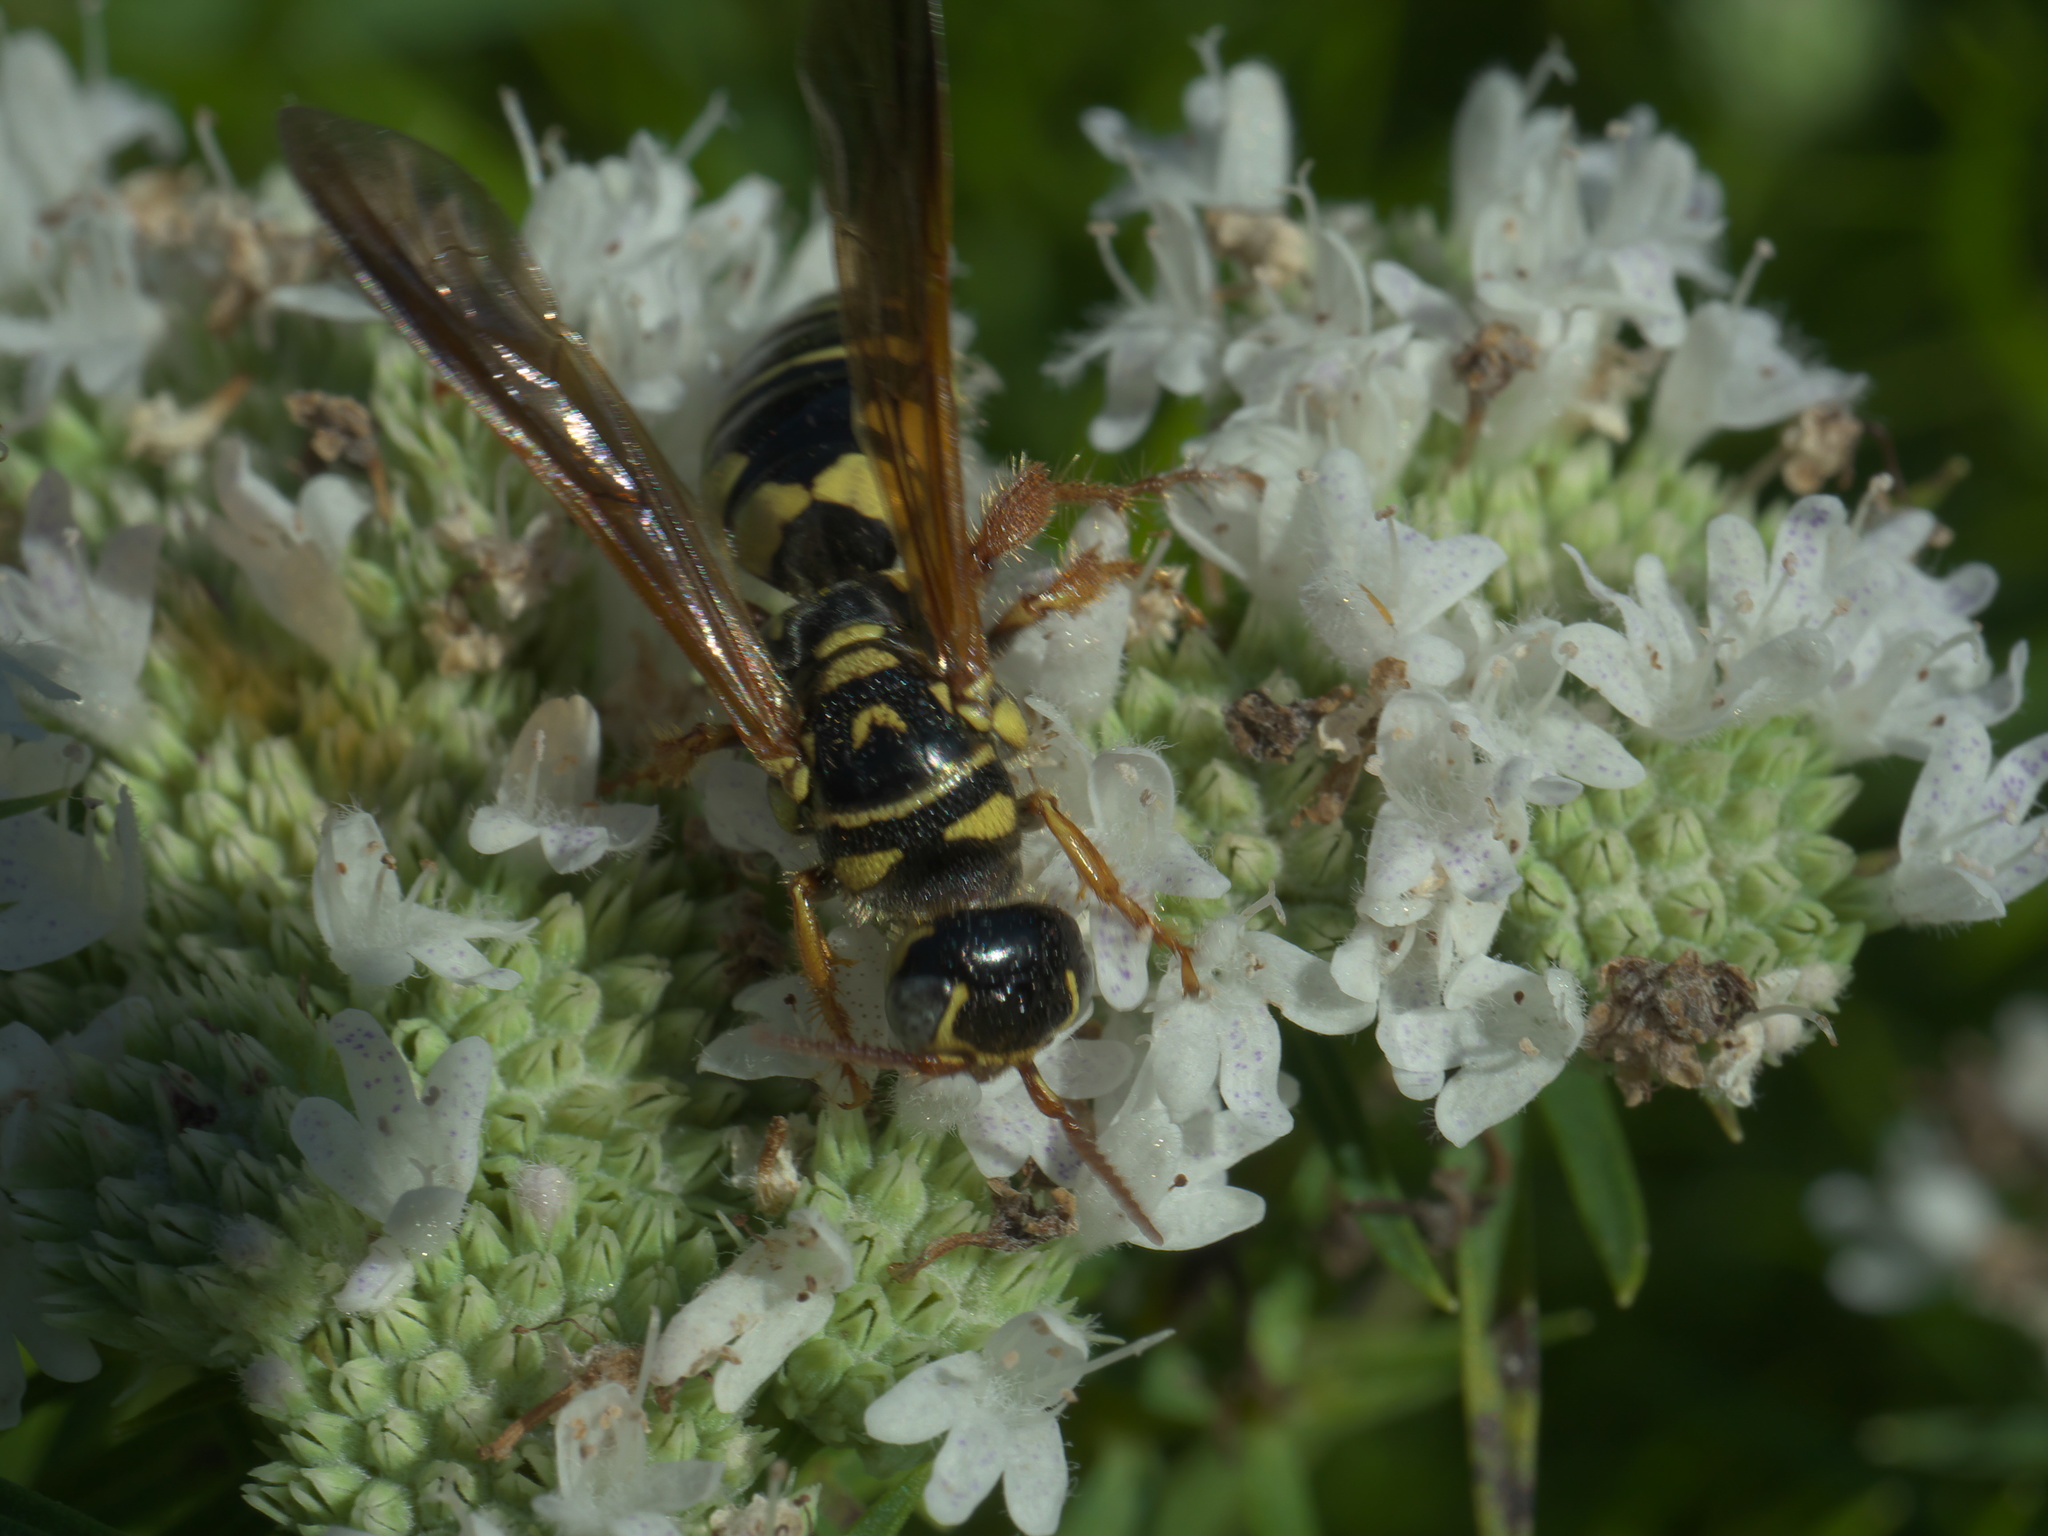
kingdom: Animalia
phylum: Arthropoda
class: Insecta
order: Hymenoptera
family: Tiphiidae
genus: Myzinum
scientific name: Myzinum quinquecinctum
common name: Five-banded thynnid wasp
